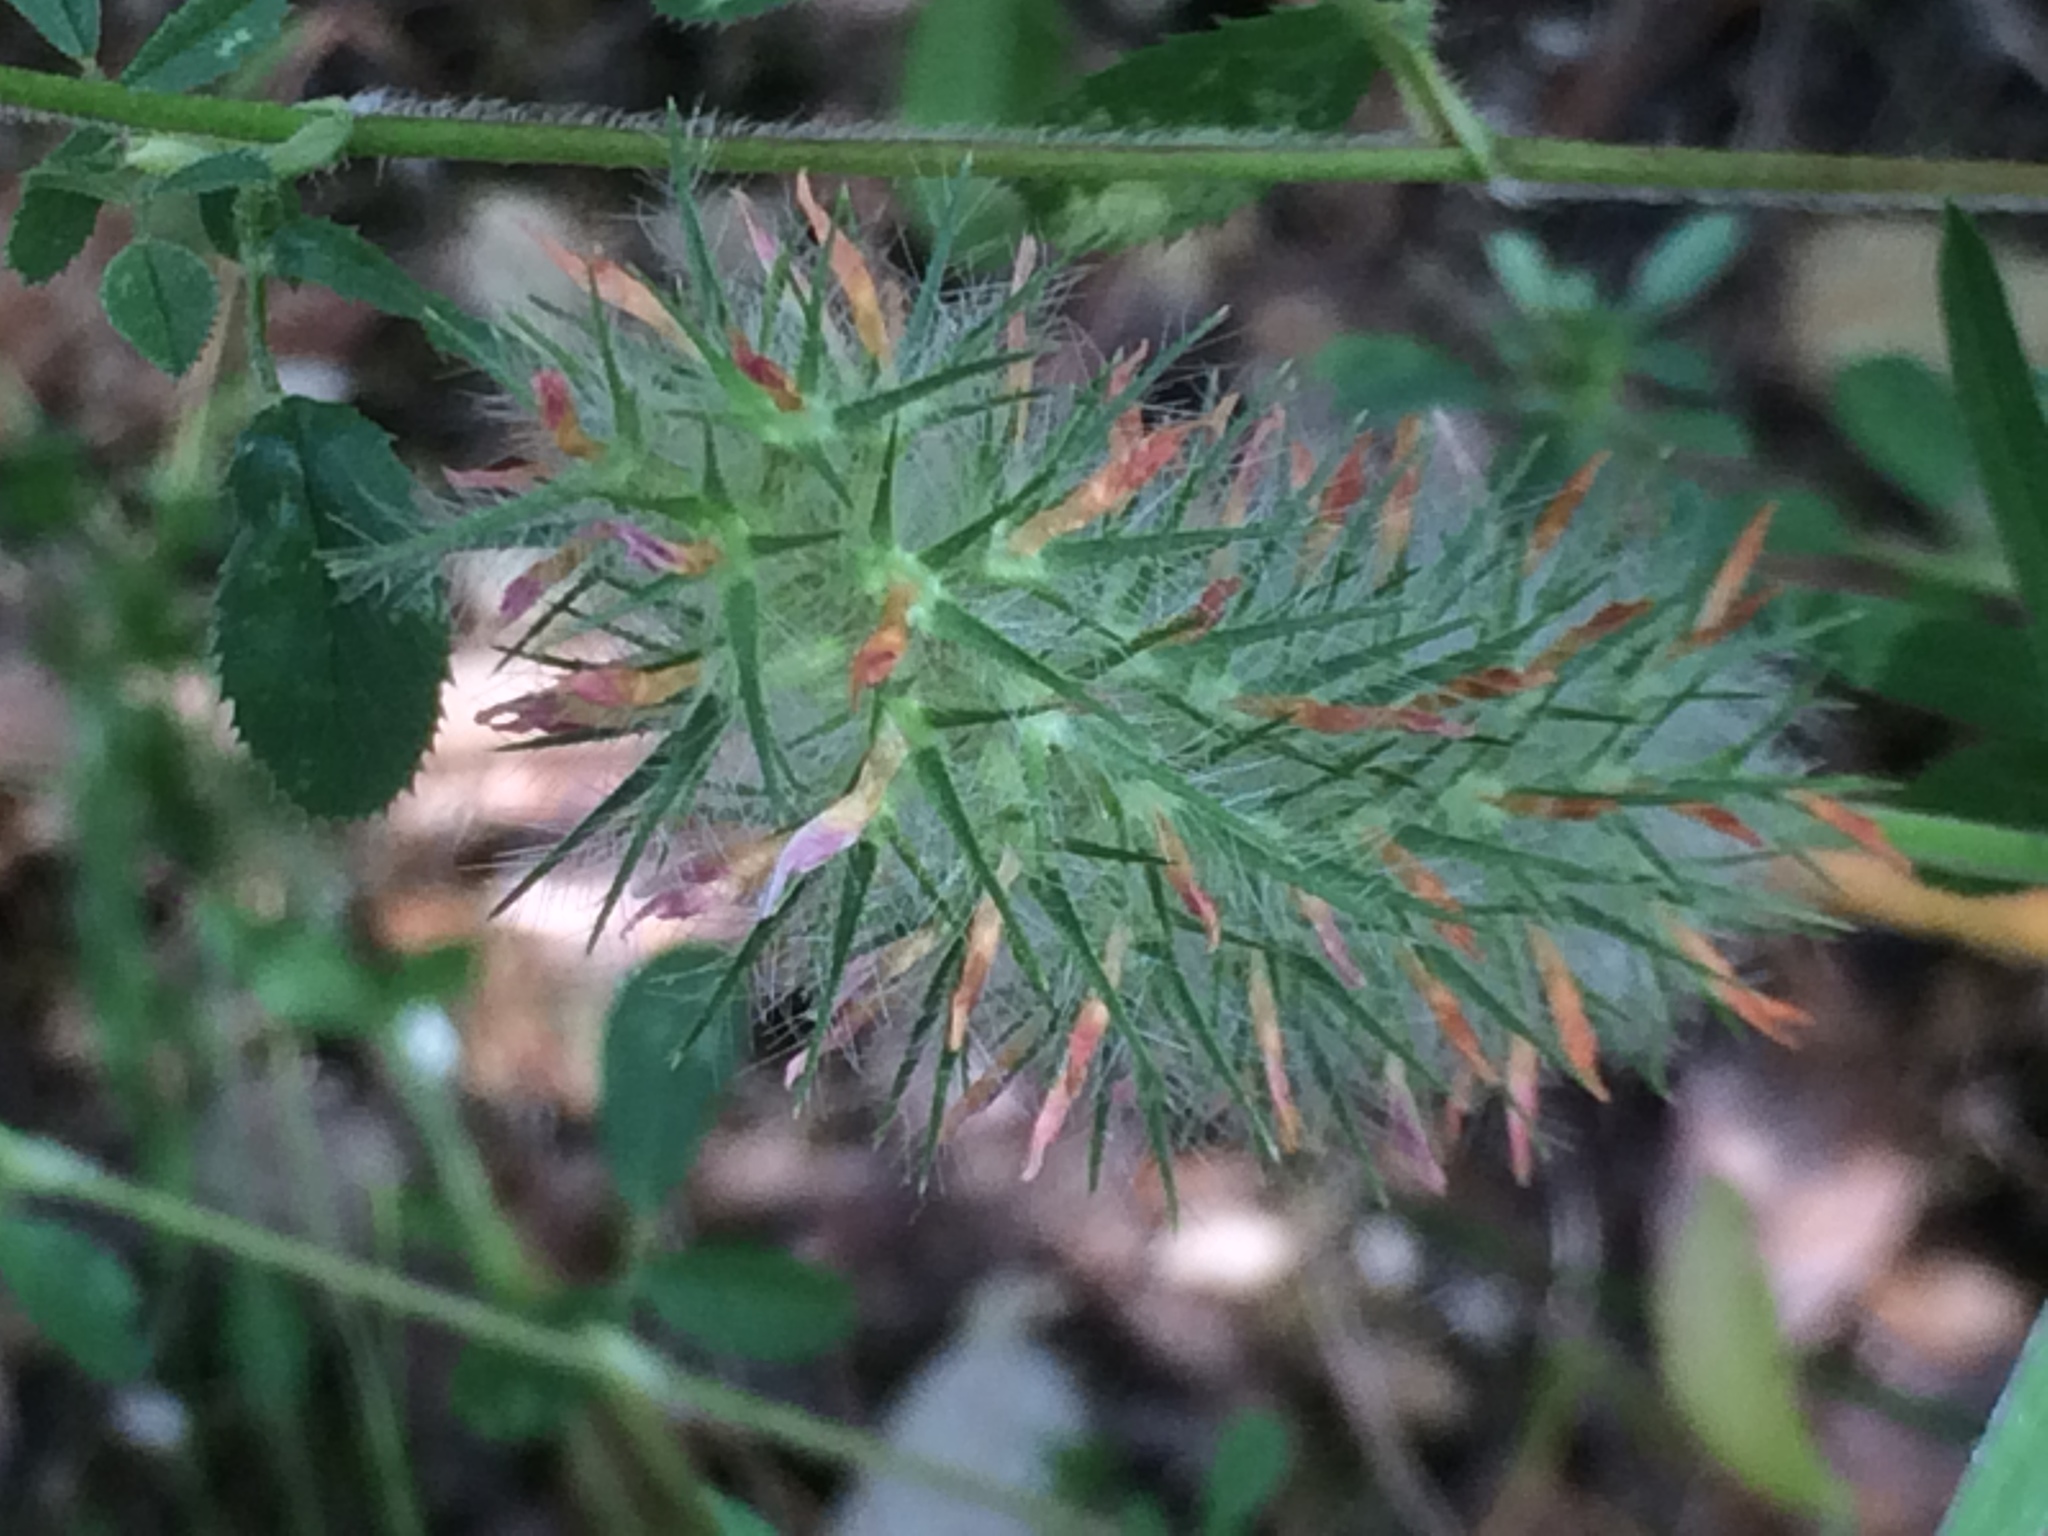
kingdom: Plantae
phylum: Tracheophyta
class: Magnoliopsida
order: Fabales
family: Fabaceae
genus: Trifolium
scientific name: Trifolium angustifolium
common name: Narrow clover
